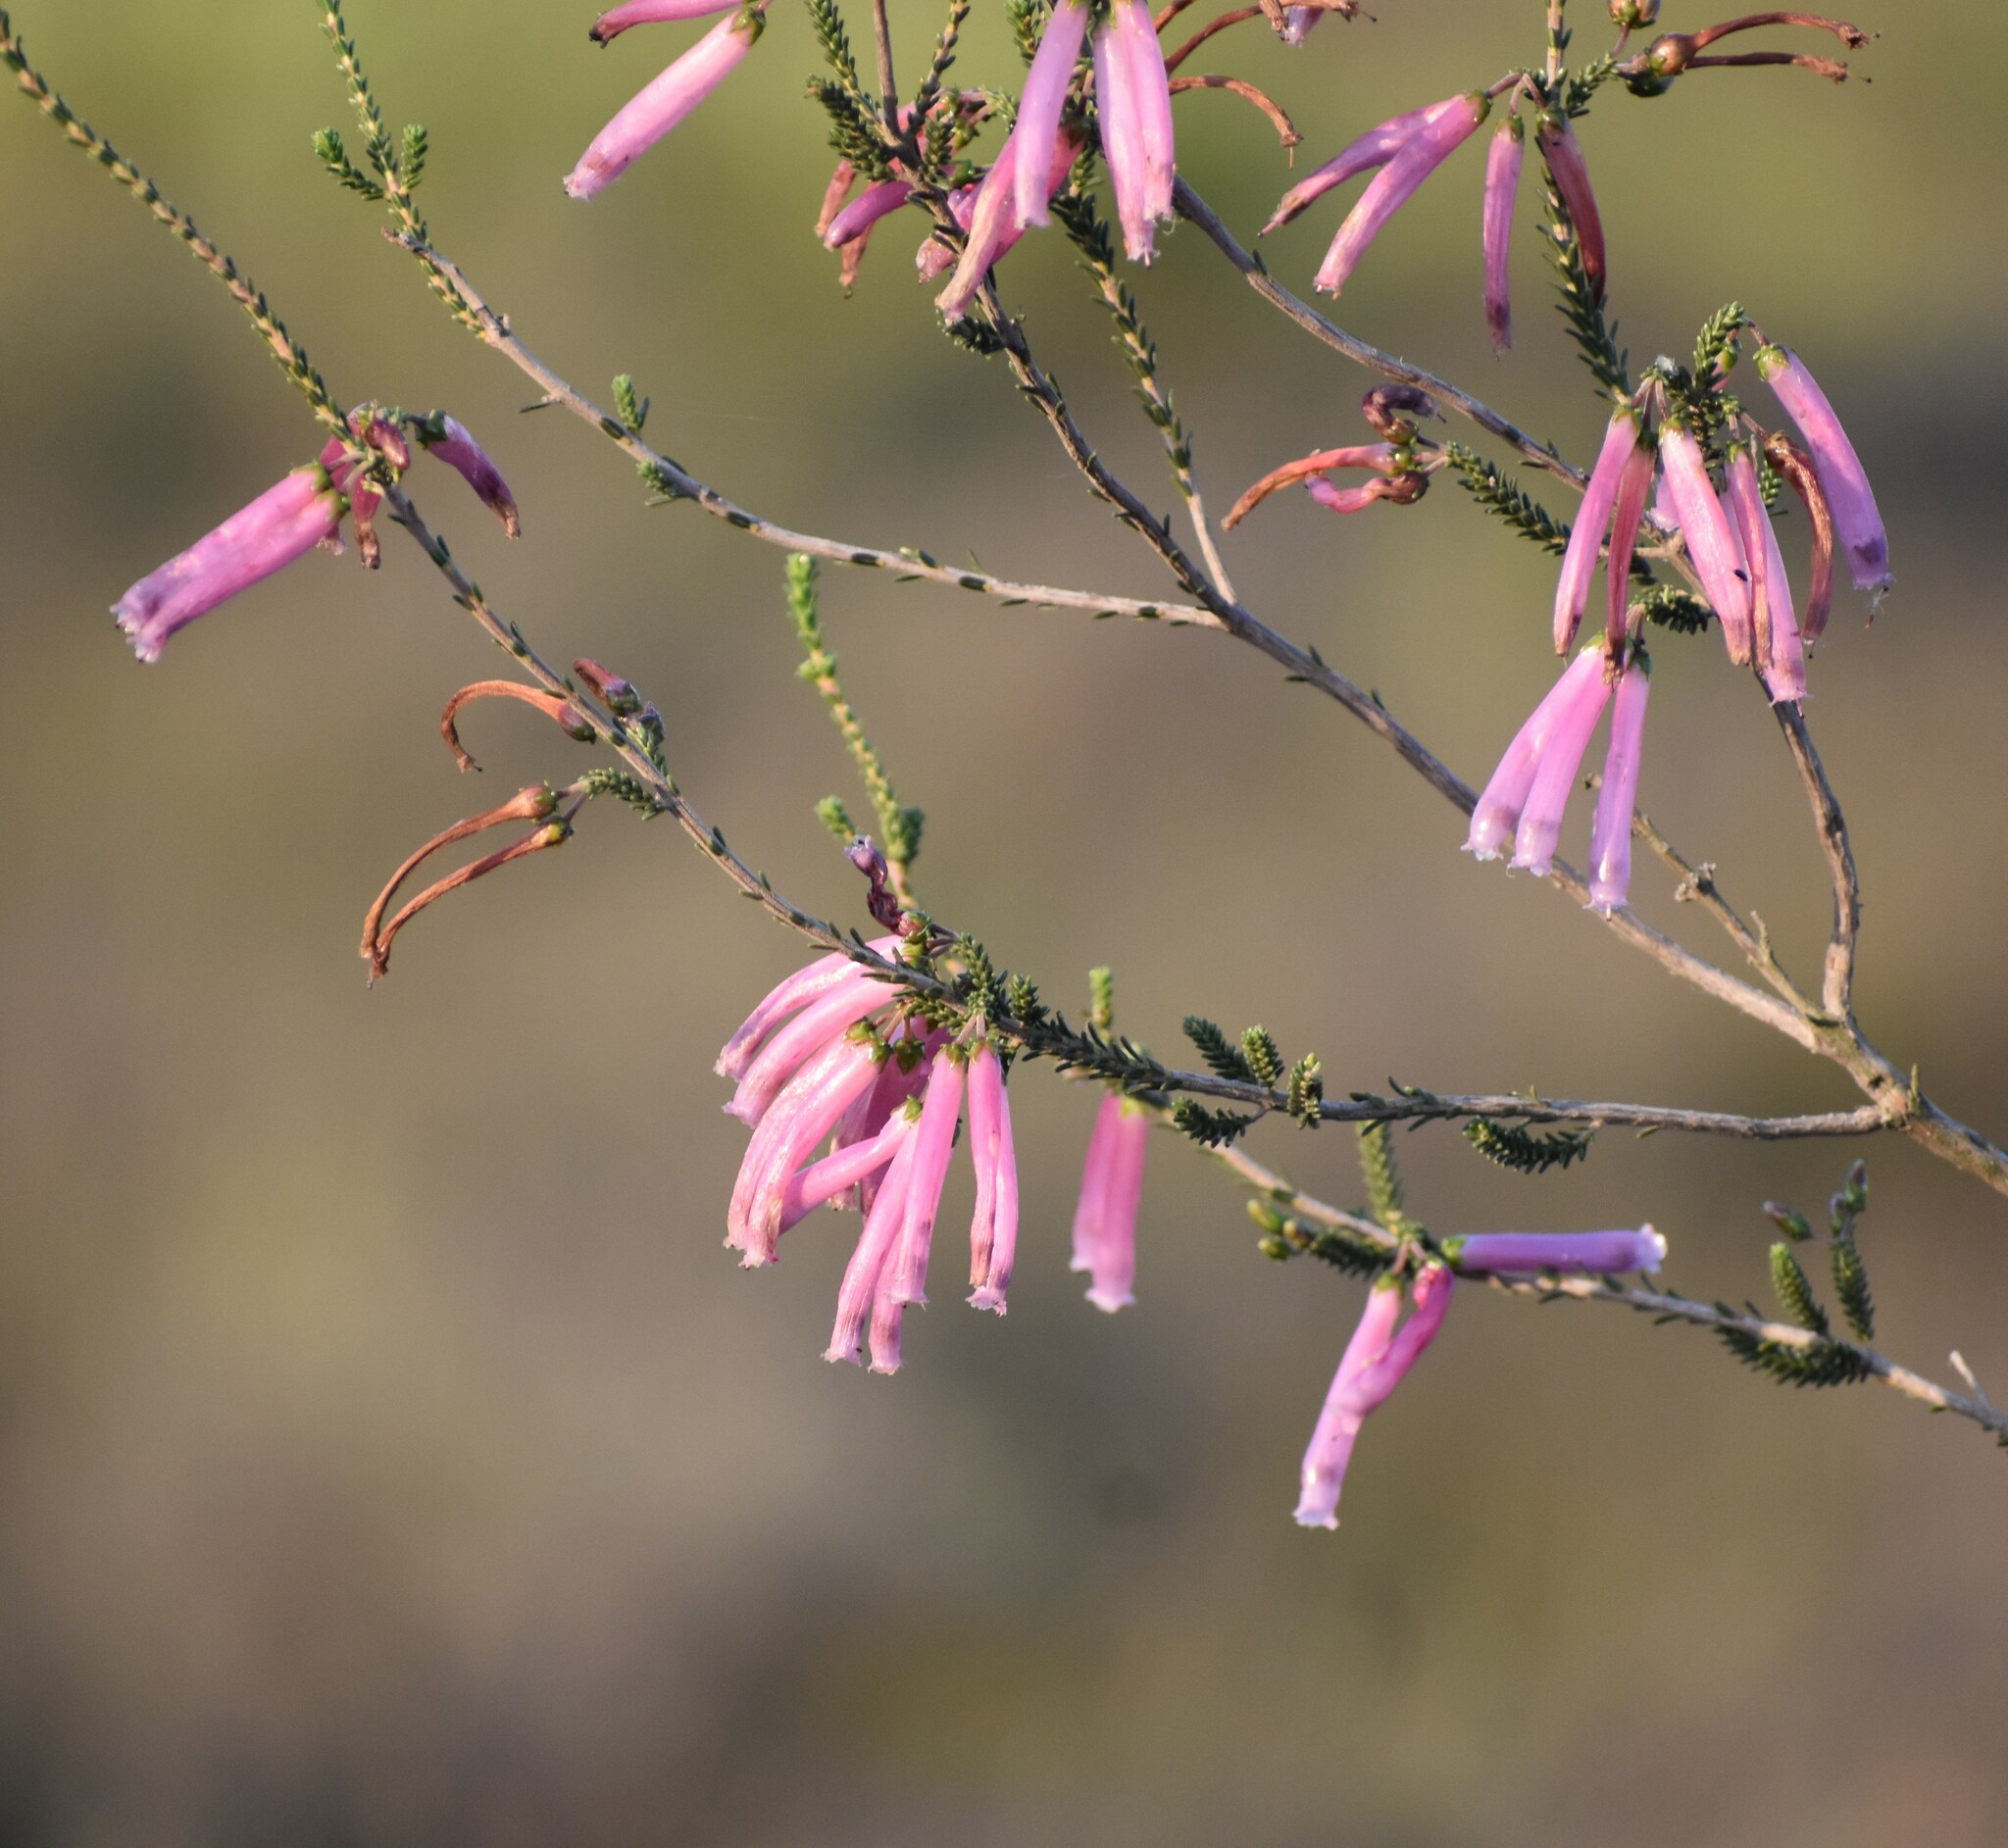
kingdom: Plantae
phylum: Tracheophyta
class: Magnoliopsida
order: Ericales
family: Ericaceae
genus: Erica
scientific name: Erica prolata
